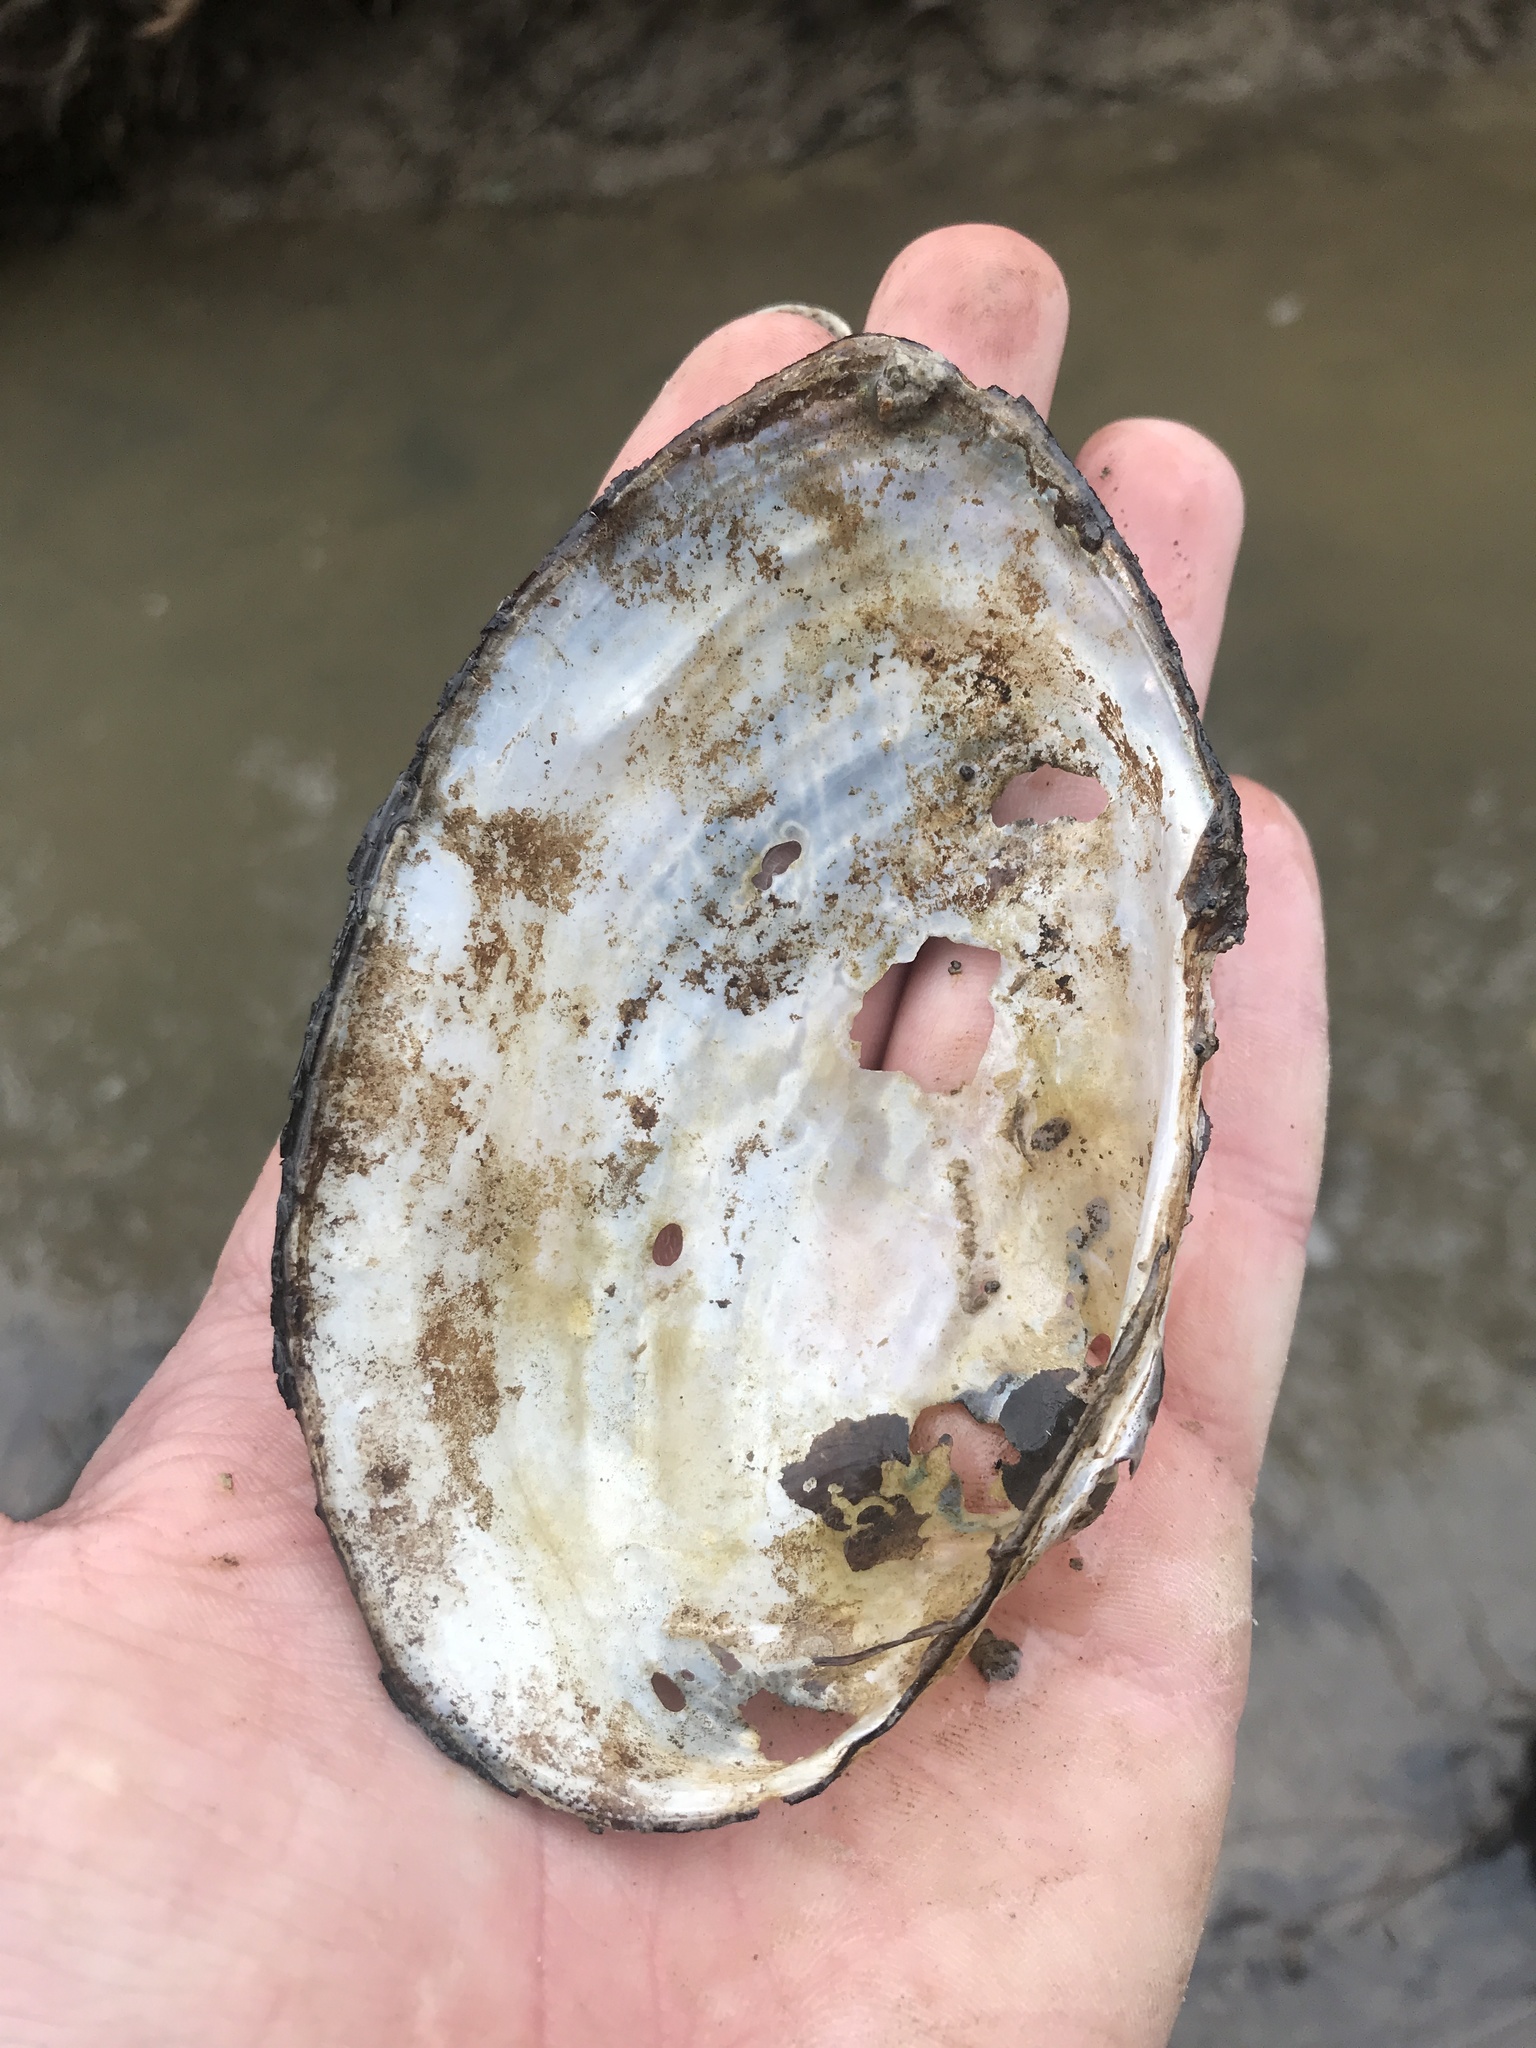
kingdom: Animalia
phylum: Mollusca
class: Bivalvia
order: Unionida
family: Unionidae
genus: Pyganodon
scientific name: Pyganodon grandis
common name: Giant floater
